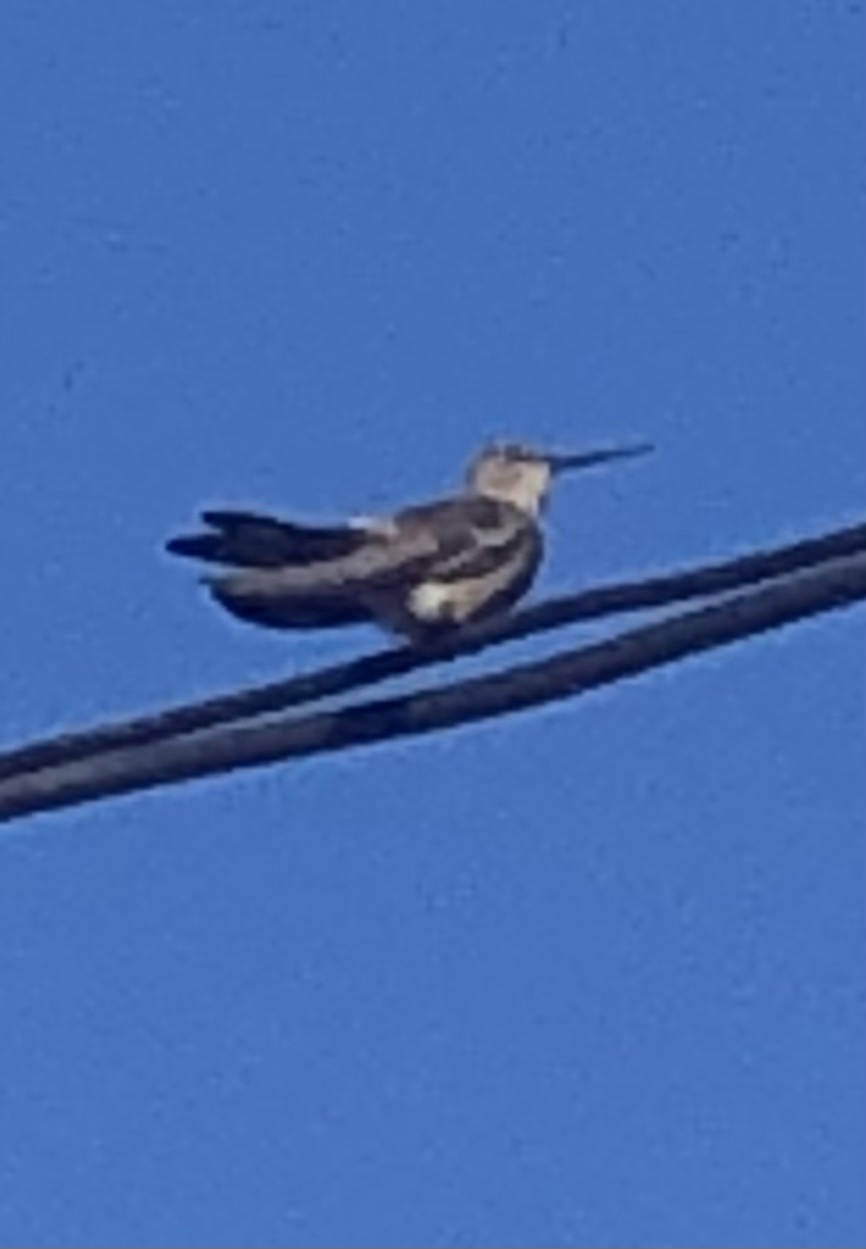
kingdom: Animalia
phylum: Chordata
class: Aves
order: Apodiformes
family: Trochilidae
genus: Patagona
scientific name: Patagona gigas
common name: Giant hummingbird
